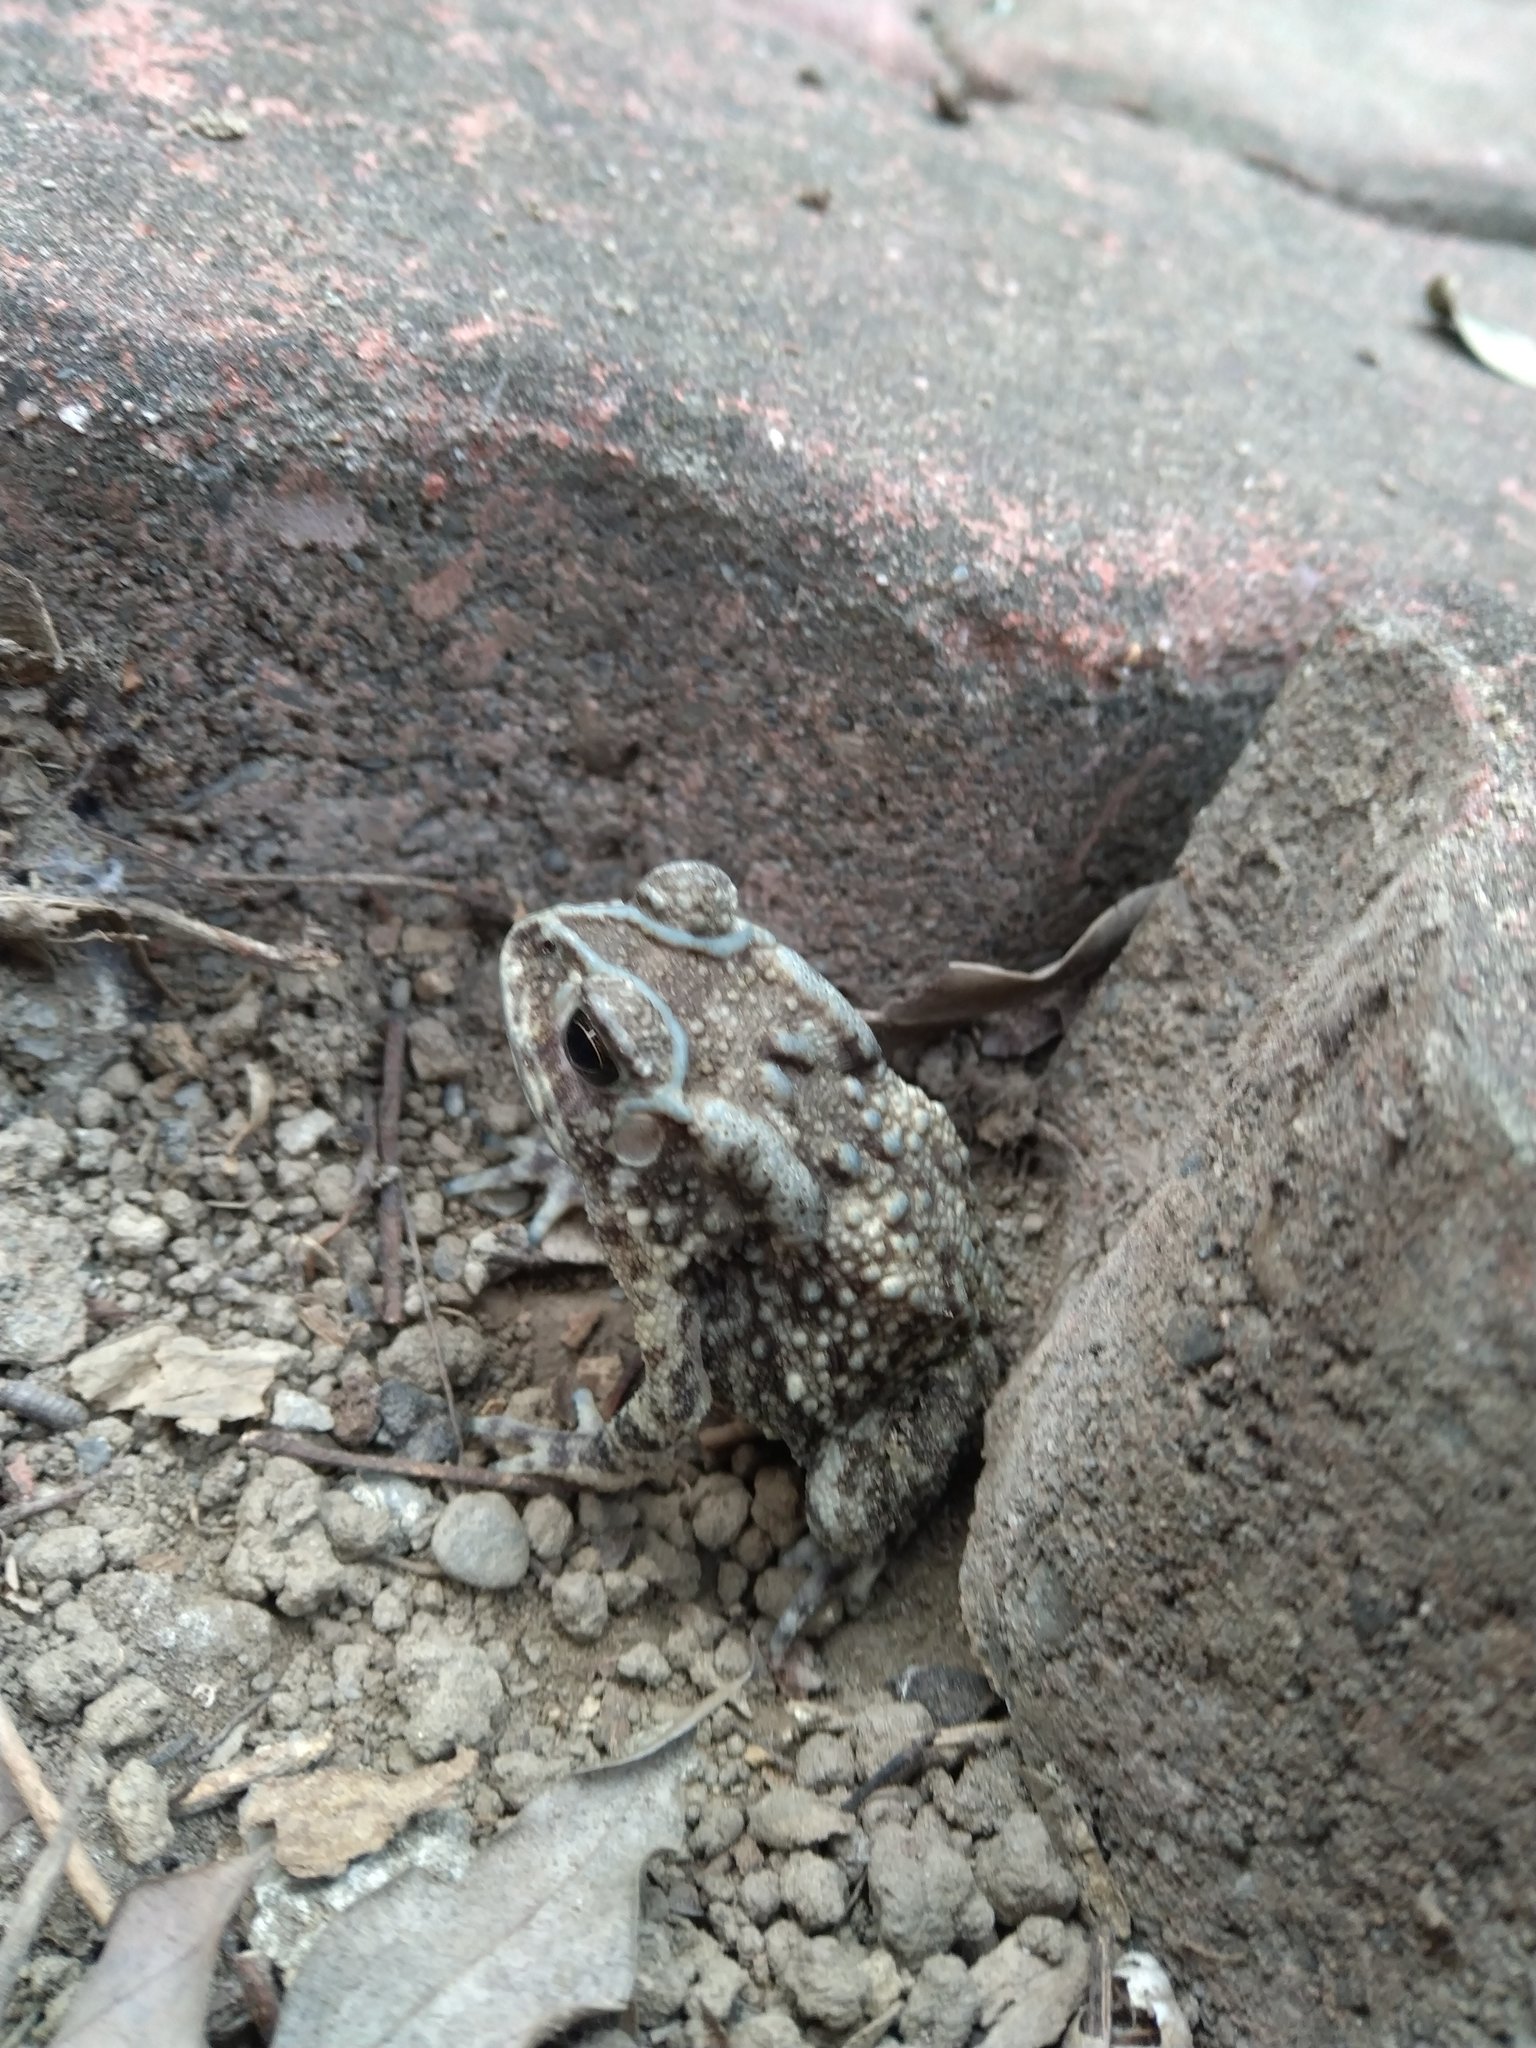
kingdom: Animalia
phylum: Chordata
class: Amphibia
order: Anura
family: Bufonidae
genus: Duttaphrynus
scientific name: Duttaphrynus melanostictus
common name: Common sunda toad
